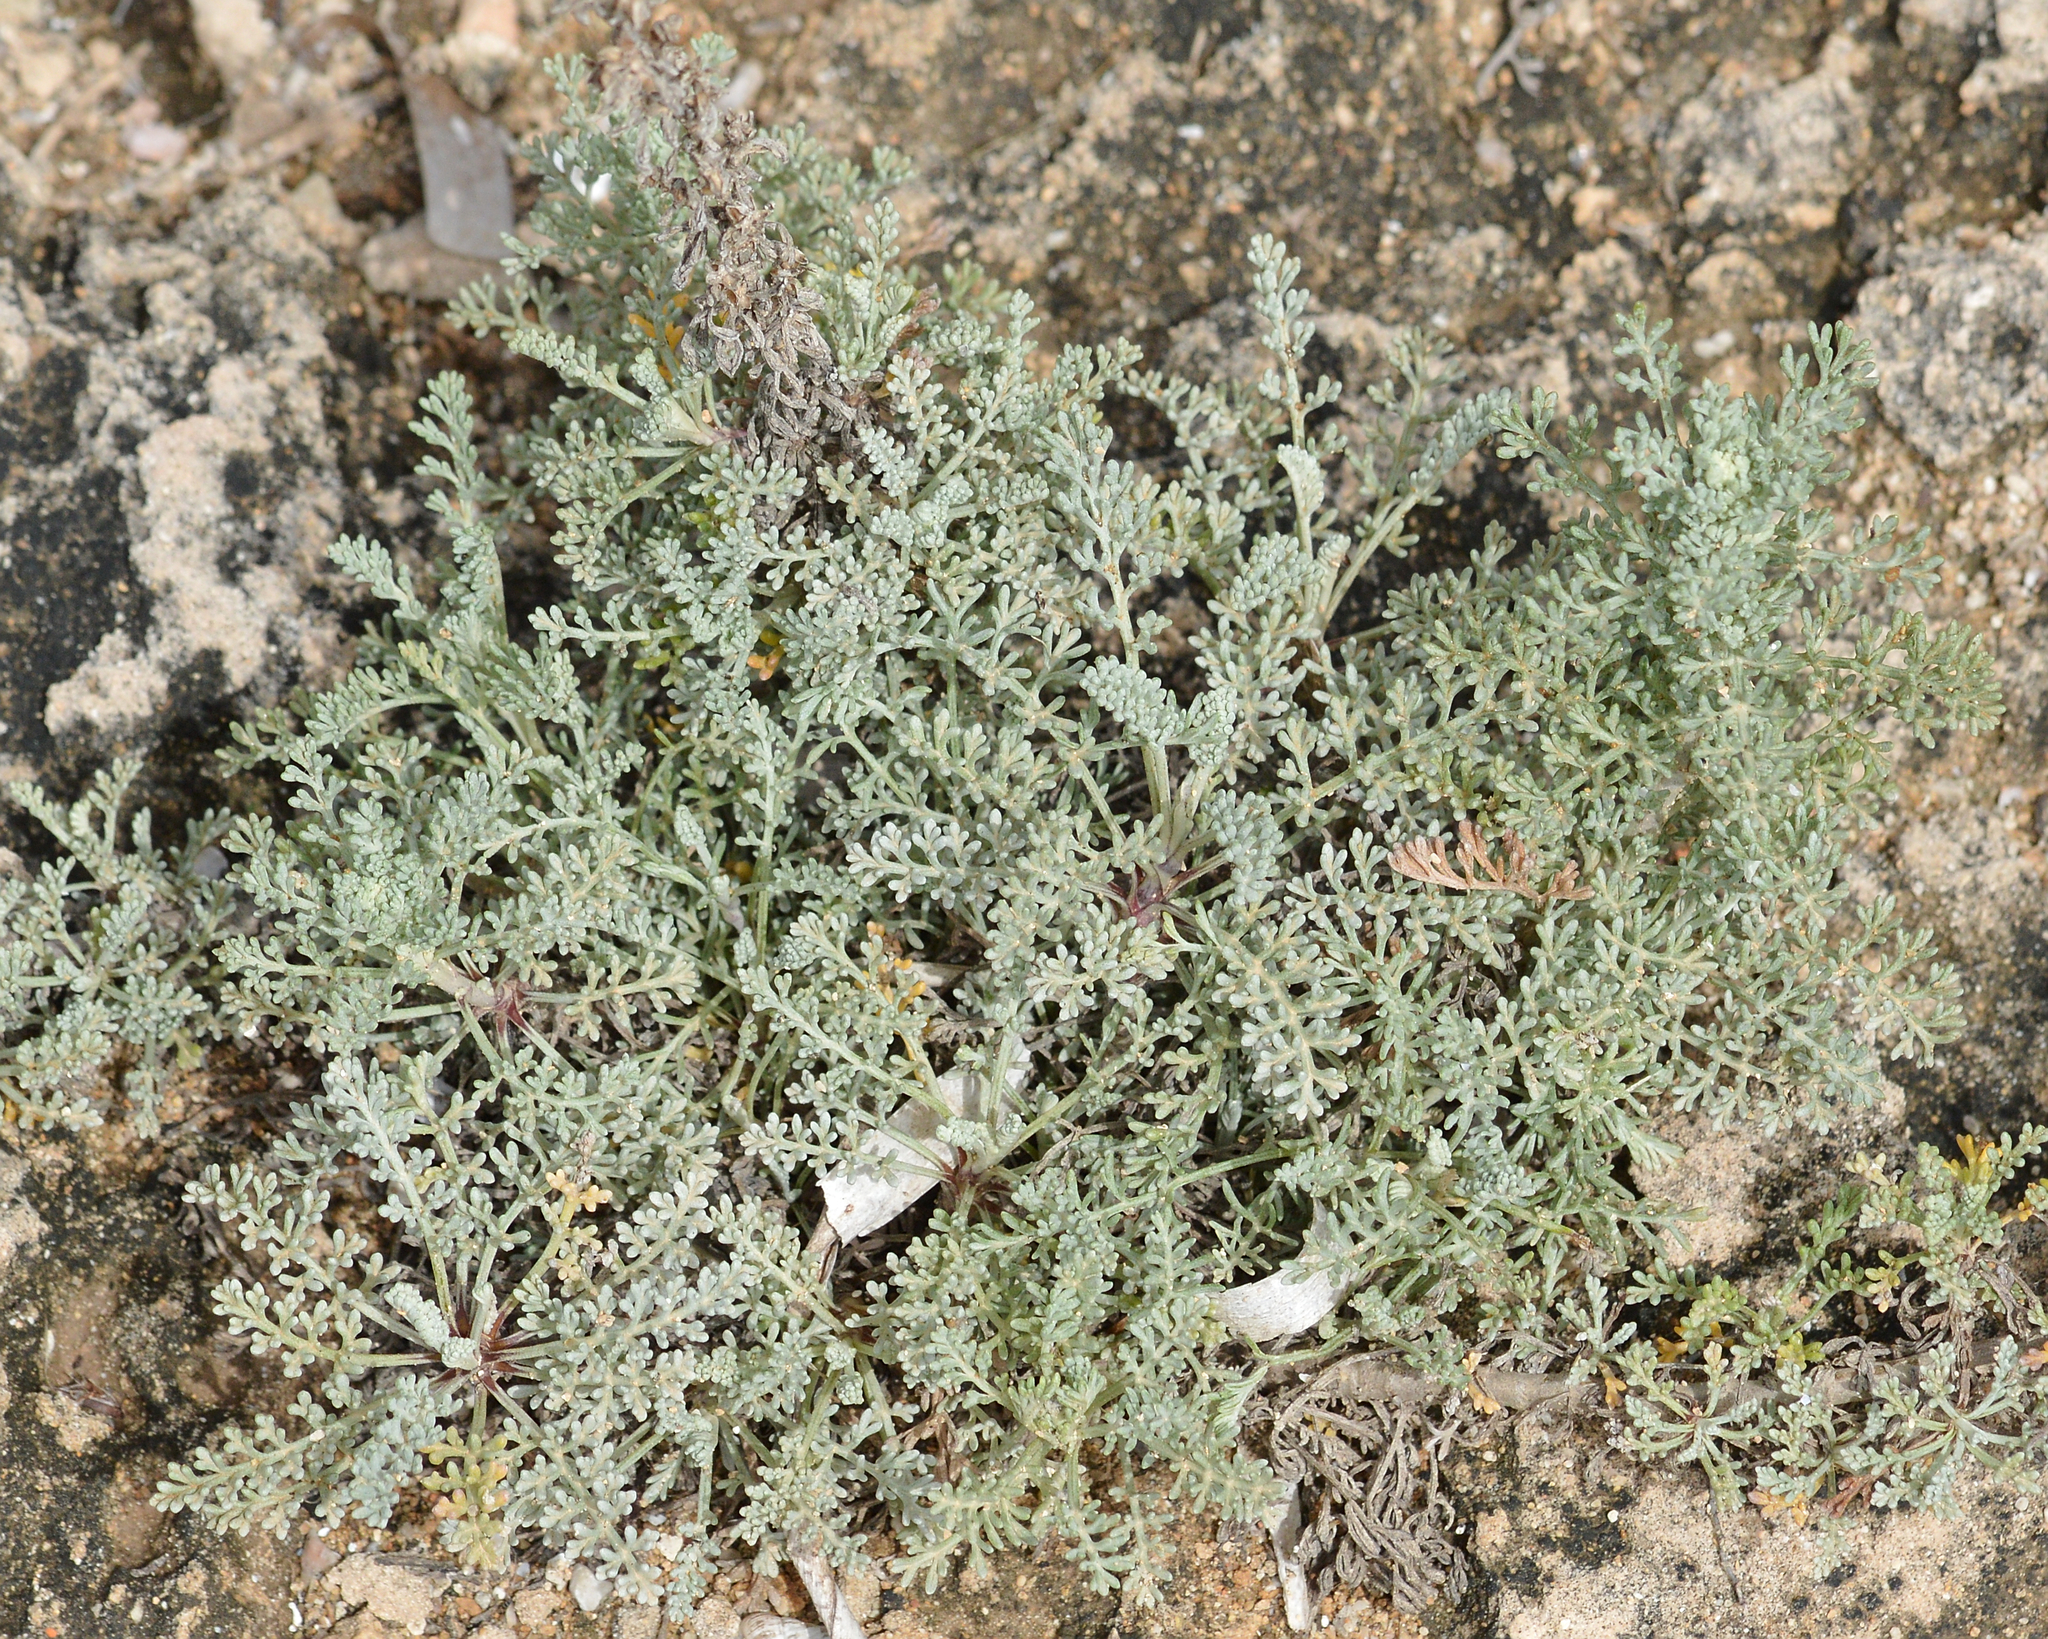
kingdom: Plantae
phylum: Tracheophyta
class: Magnoliopsida
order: Asterales
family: Asteraceae
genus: Artemisia
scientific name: Artemisia caerulescens
